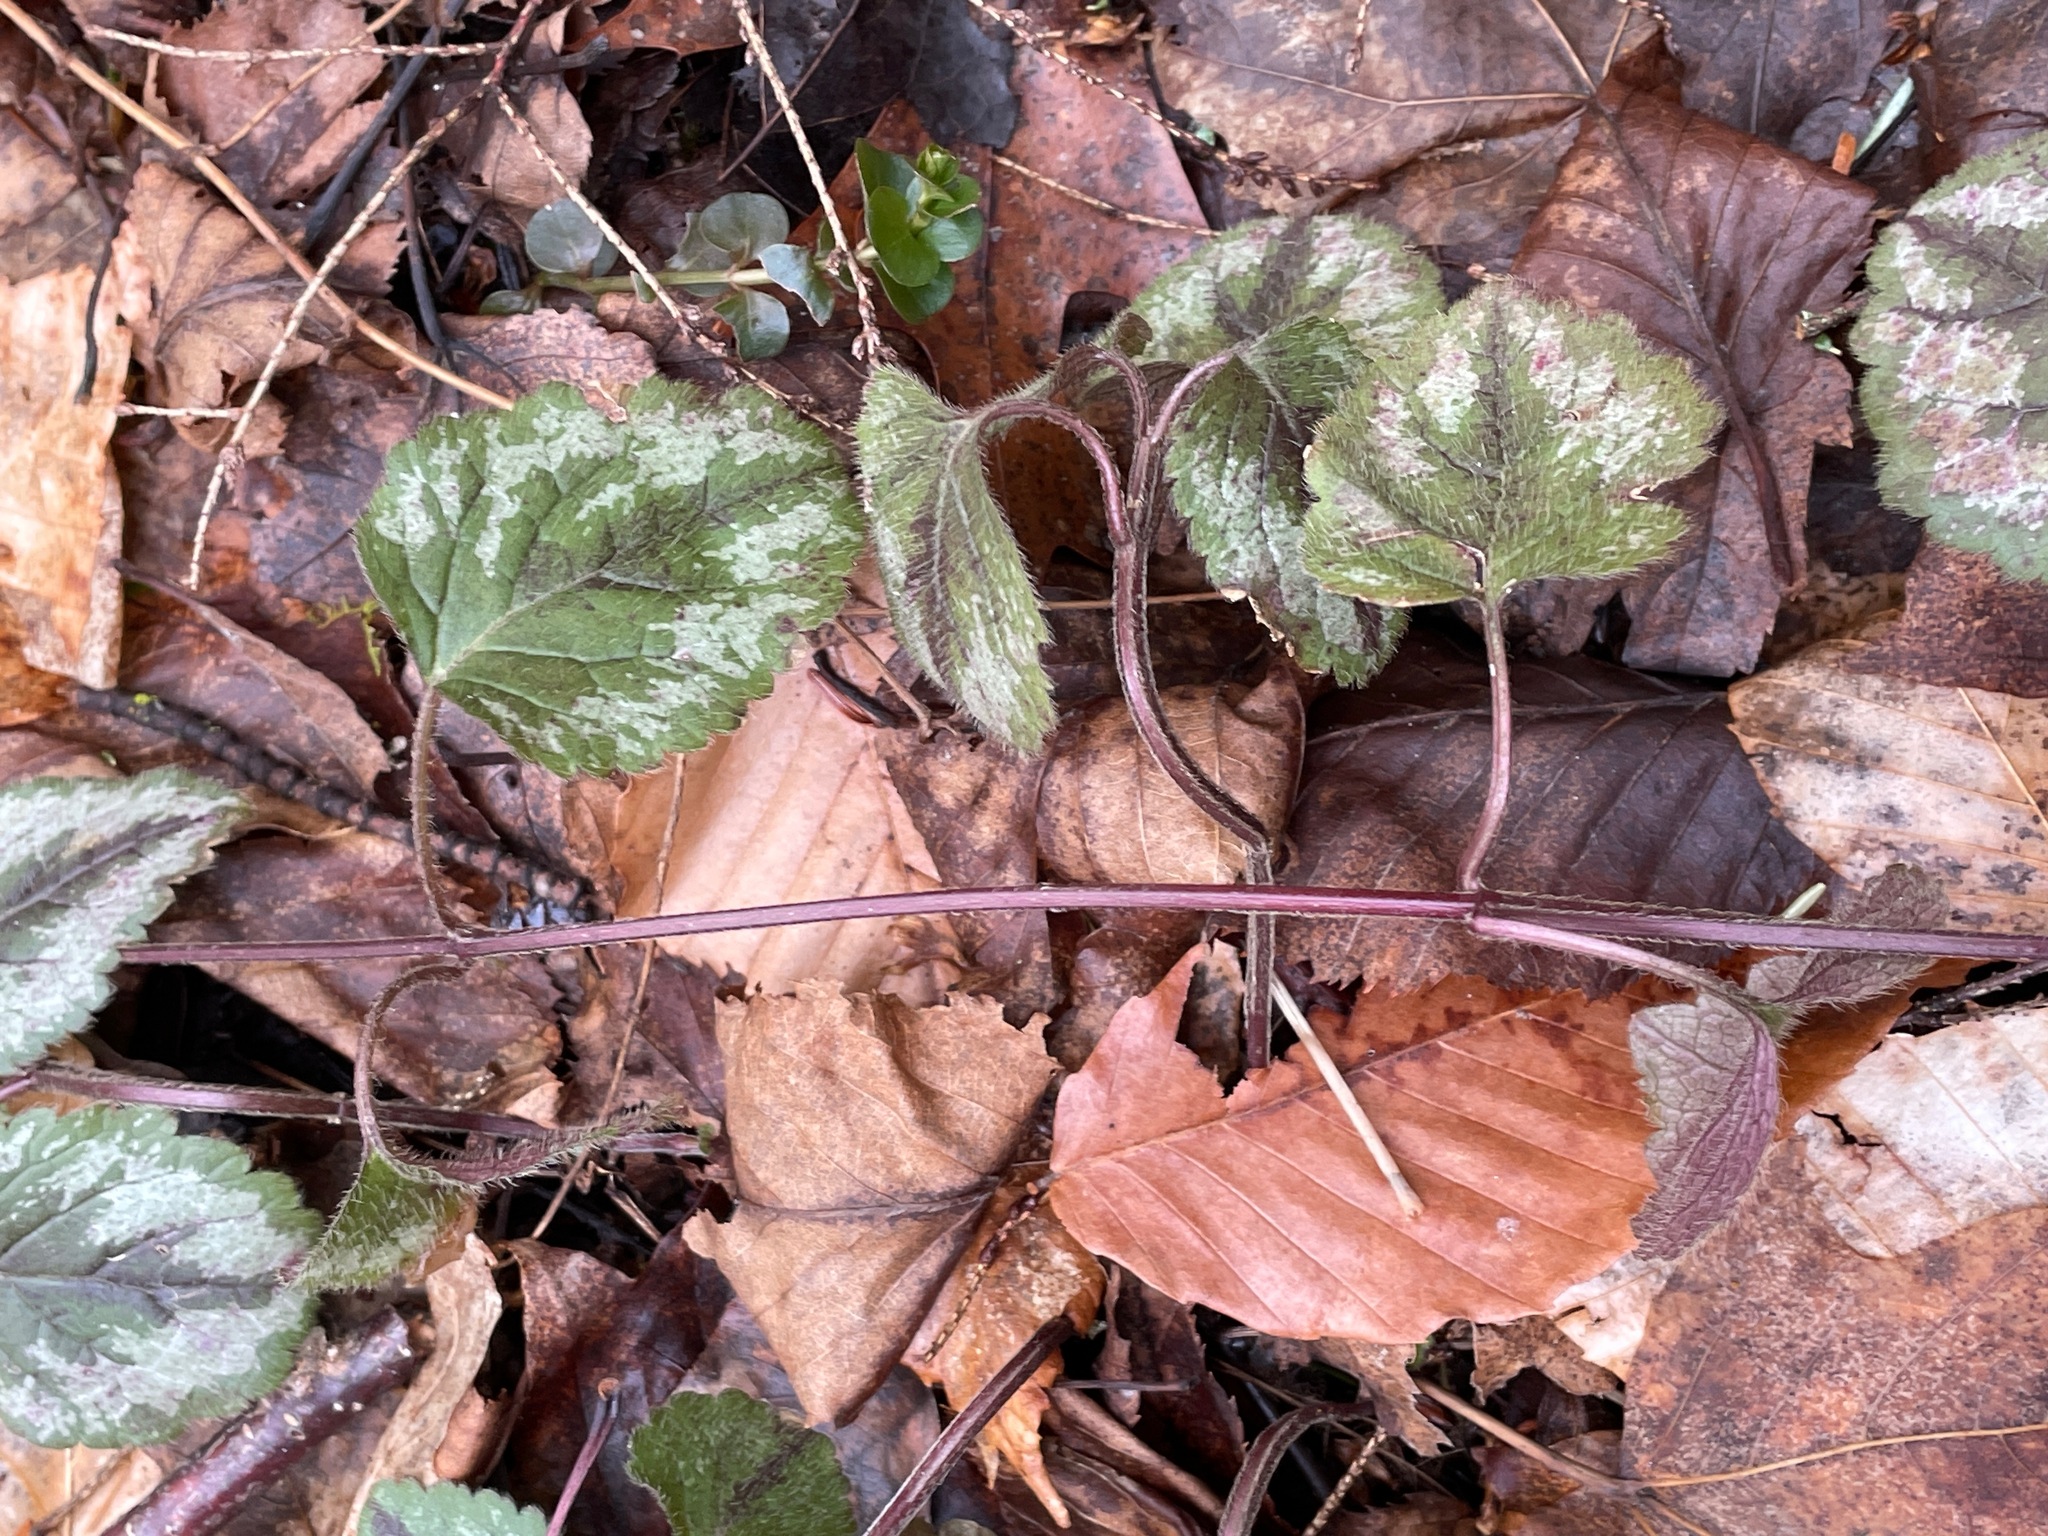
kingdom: Plantae
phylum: Tracheophyta
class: Magnoliopsida
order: Lamiales
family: Lamiaceae
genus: Lamium
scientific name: Lamium galeobdolon
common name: Yellow archangel
